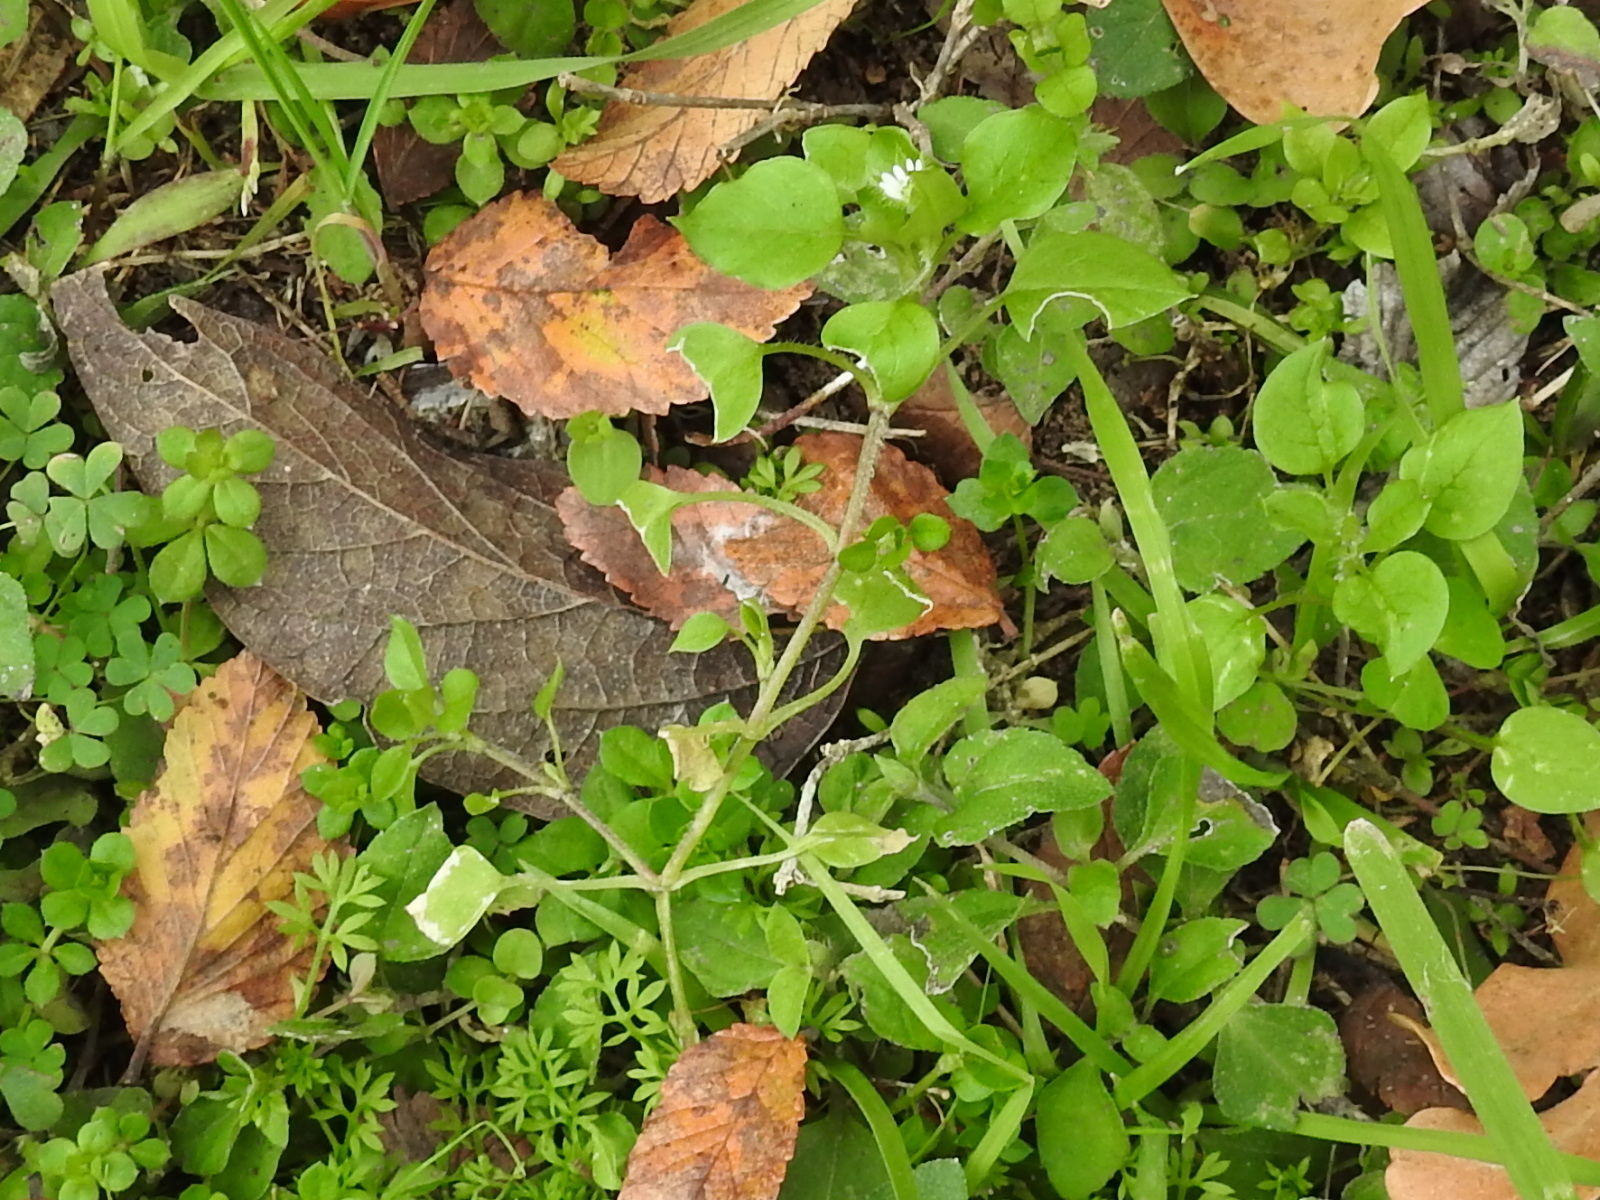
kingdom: Plantae
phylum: Tracheophyta
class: Magnoliopsida
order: Caryophyllales
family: Caryophyllaceae
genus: Stellaria
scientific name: Stellaria media
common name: Common chickweed
